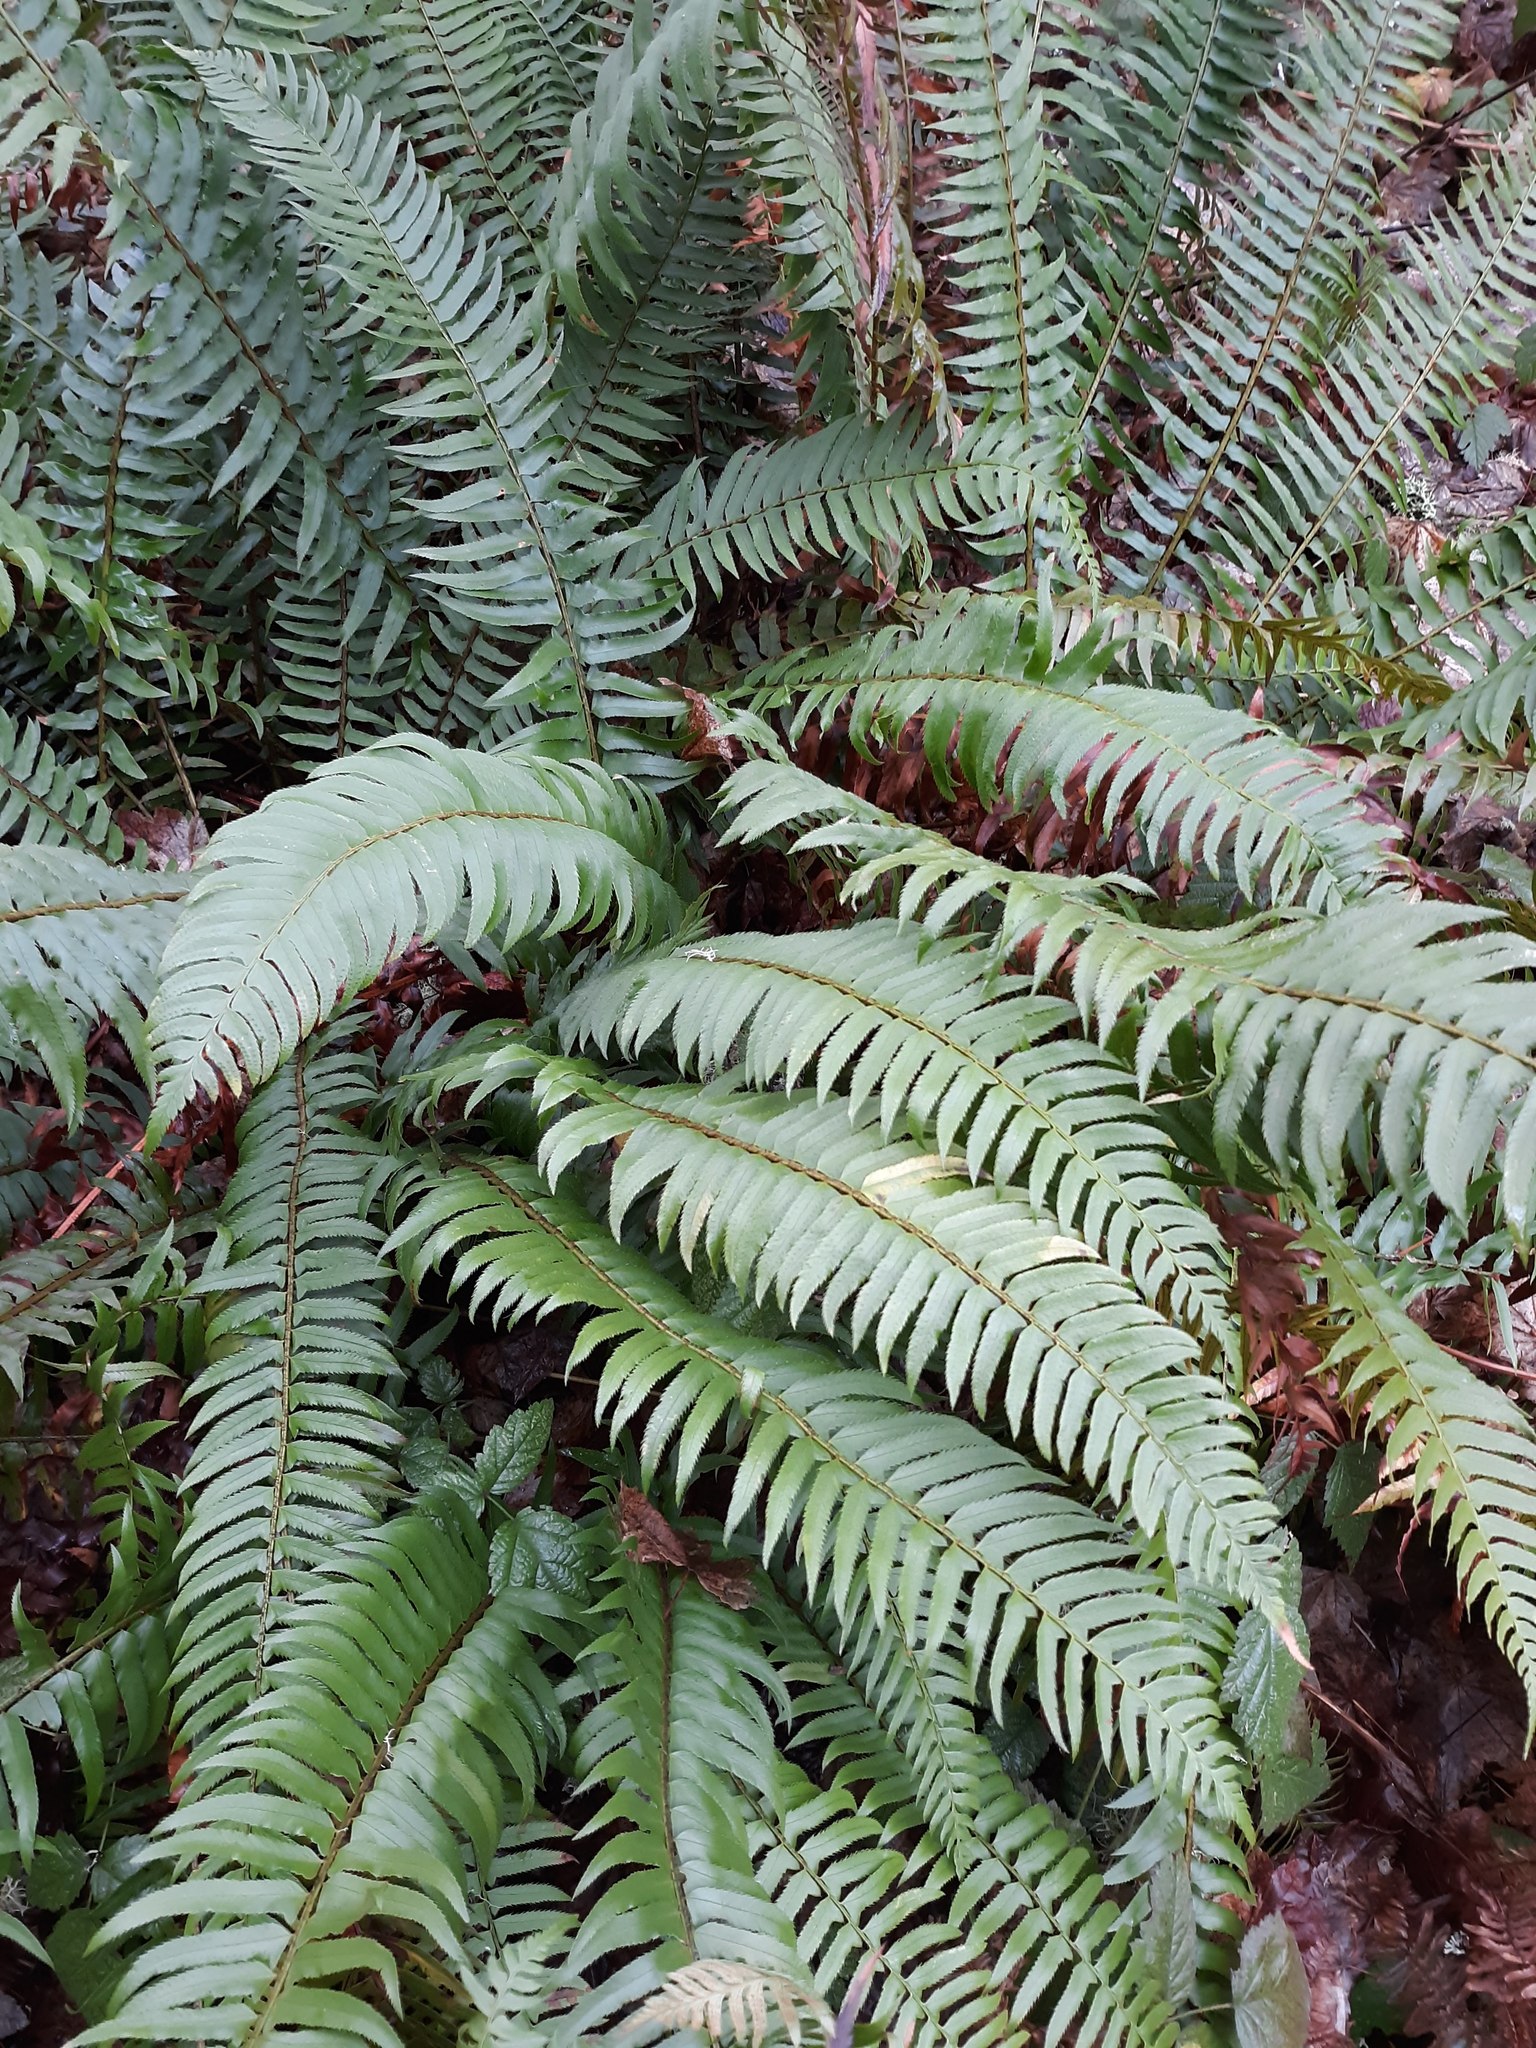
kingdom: Plantae
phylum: Tracheophyta
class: Polypodiopsida
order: Polypodiales
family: Dryopteridaceae
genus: Polystichum
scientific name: Polystichum munitum
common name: Western sword-fern
